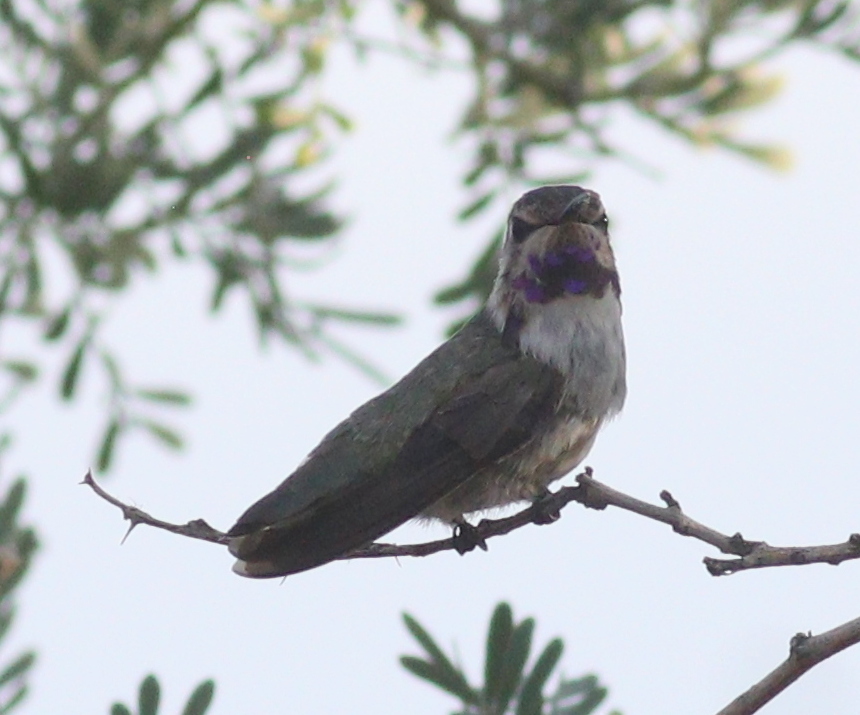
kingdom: Animalia
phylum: Chordata
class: Aves
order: Apodiformes
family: Trochilidae
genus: Calypte
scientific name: Calypte costae
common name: Costa's hummingbird
